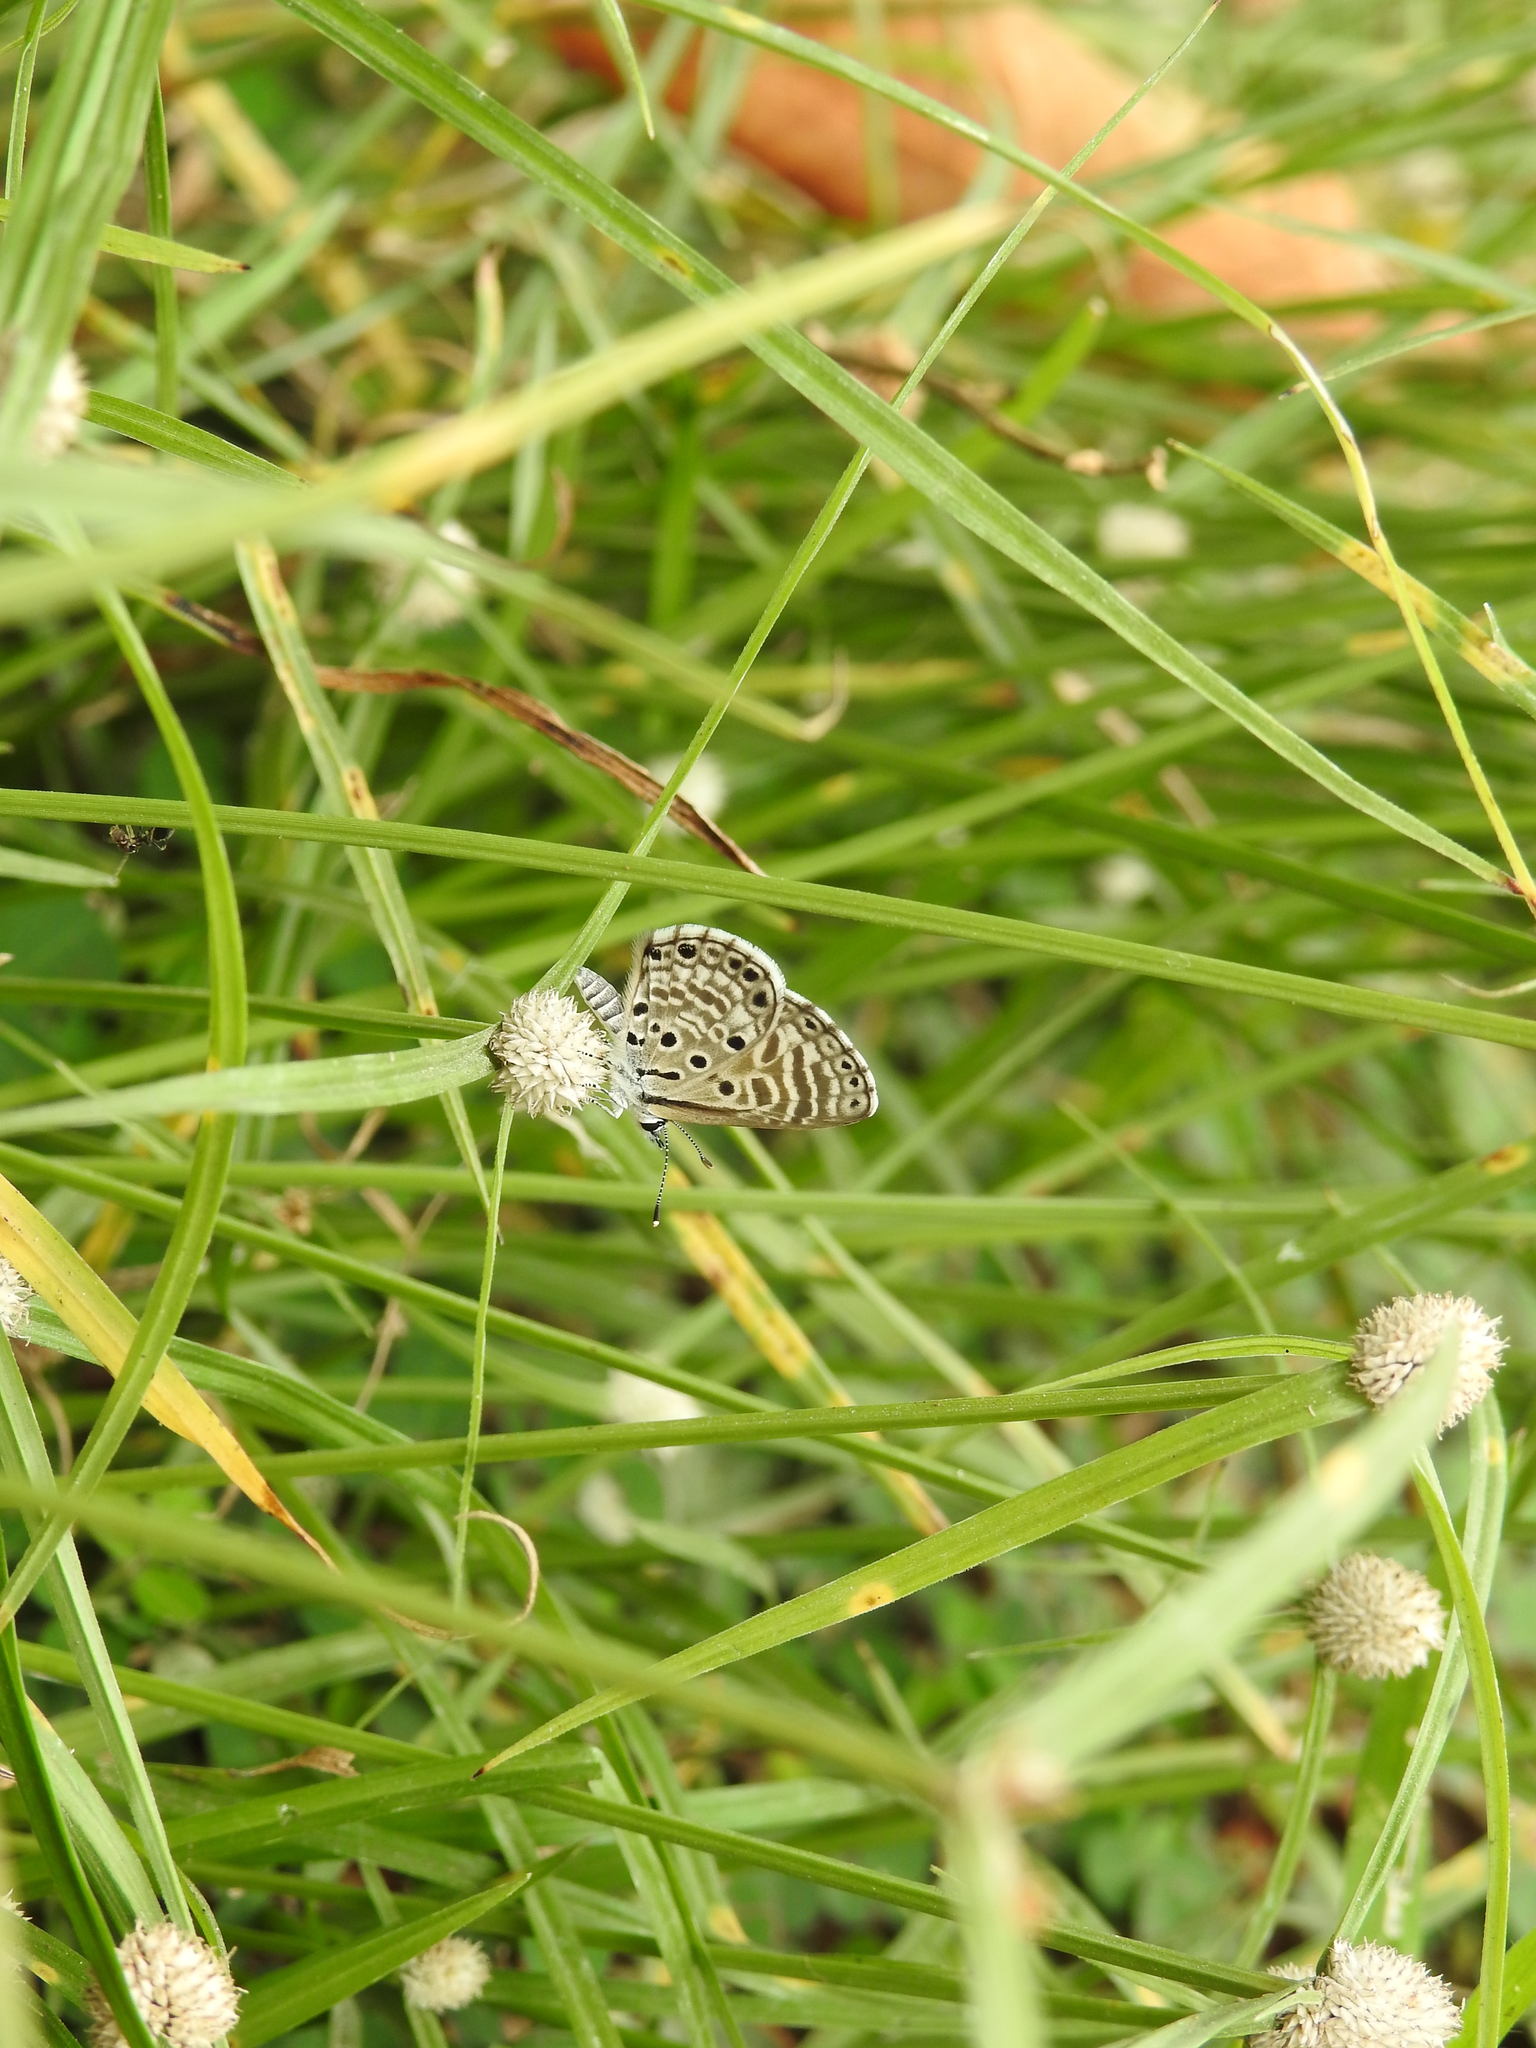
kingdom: Animalia
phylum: Arthropoda
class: Insecta
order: Lepidoptera
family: Lycaenidae
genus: Azanus
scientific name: Azanus jesous
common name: African babul blue
